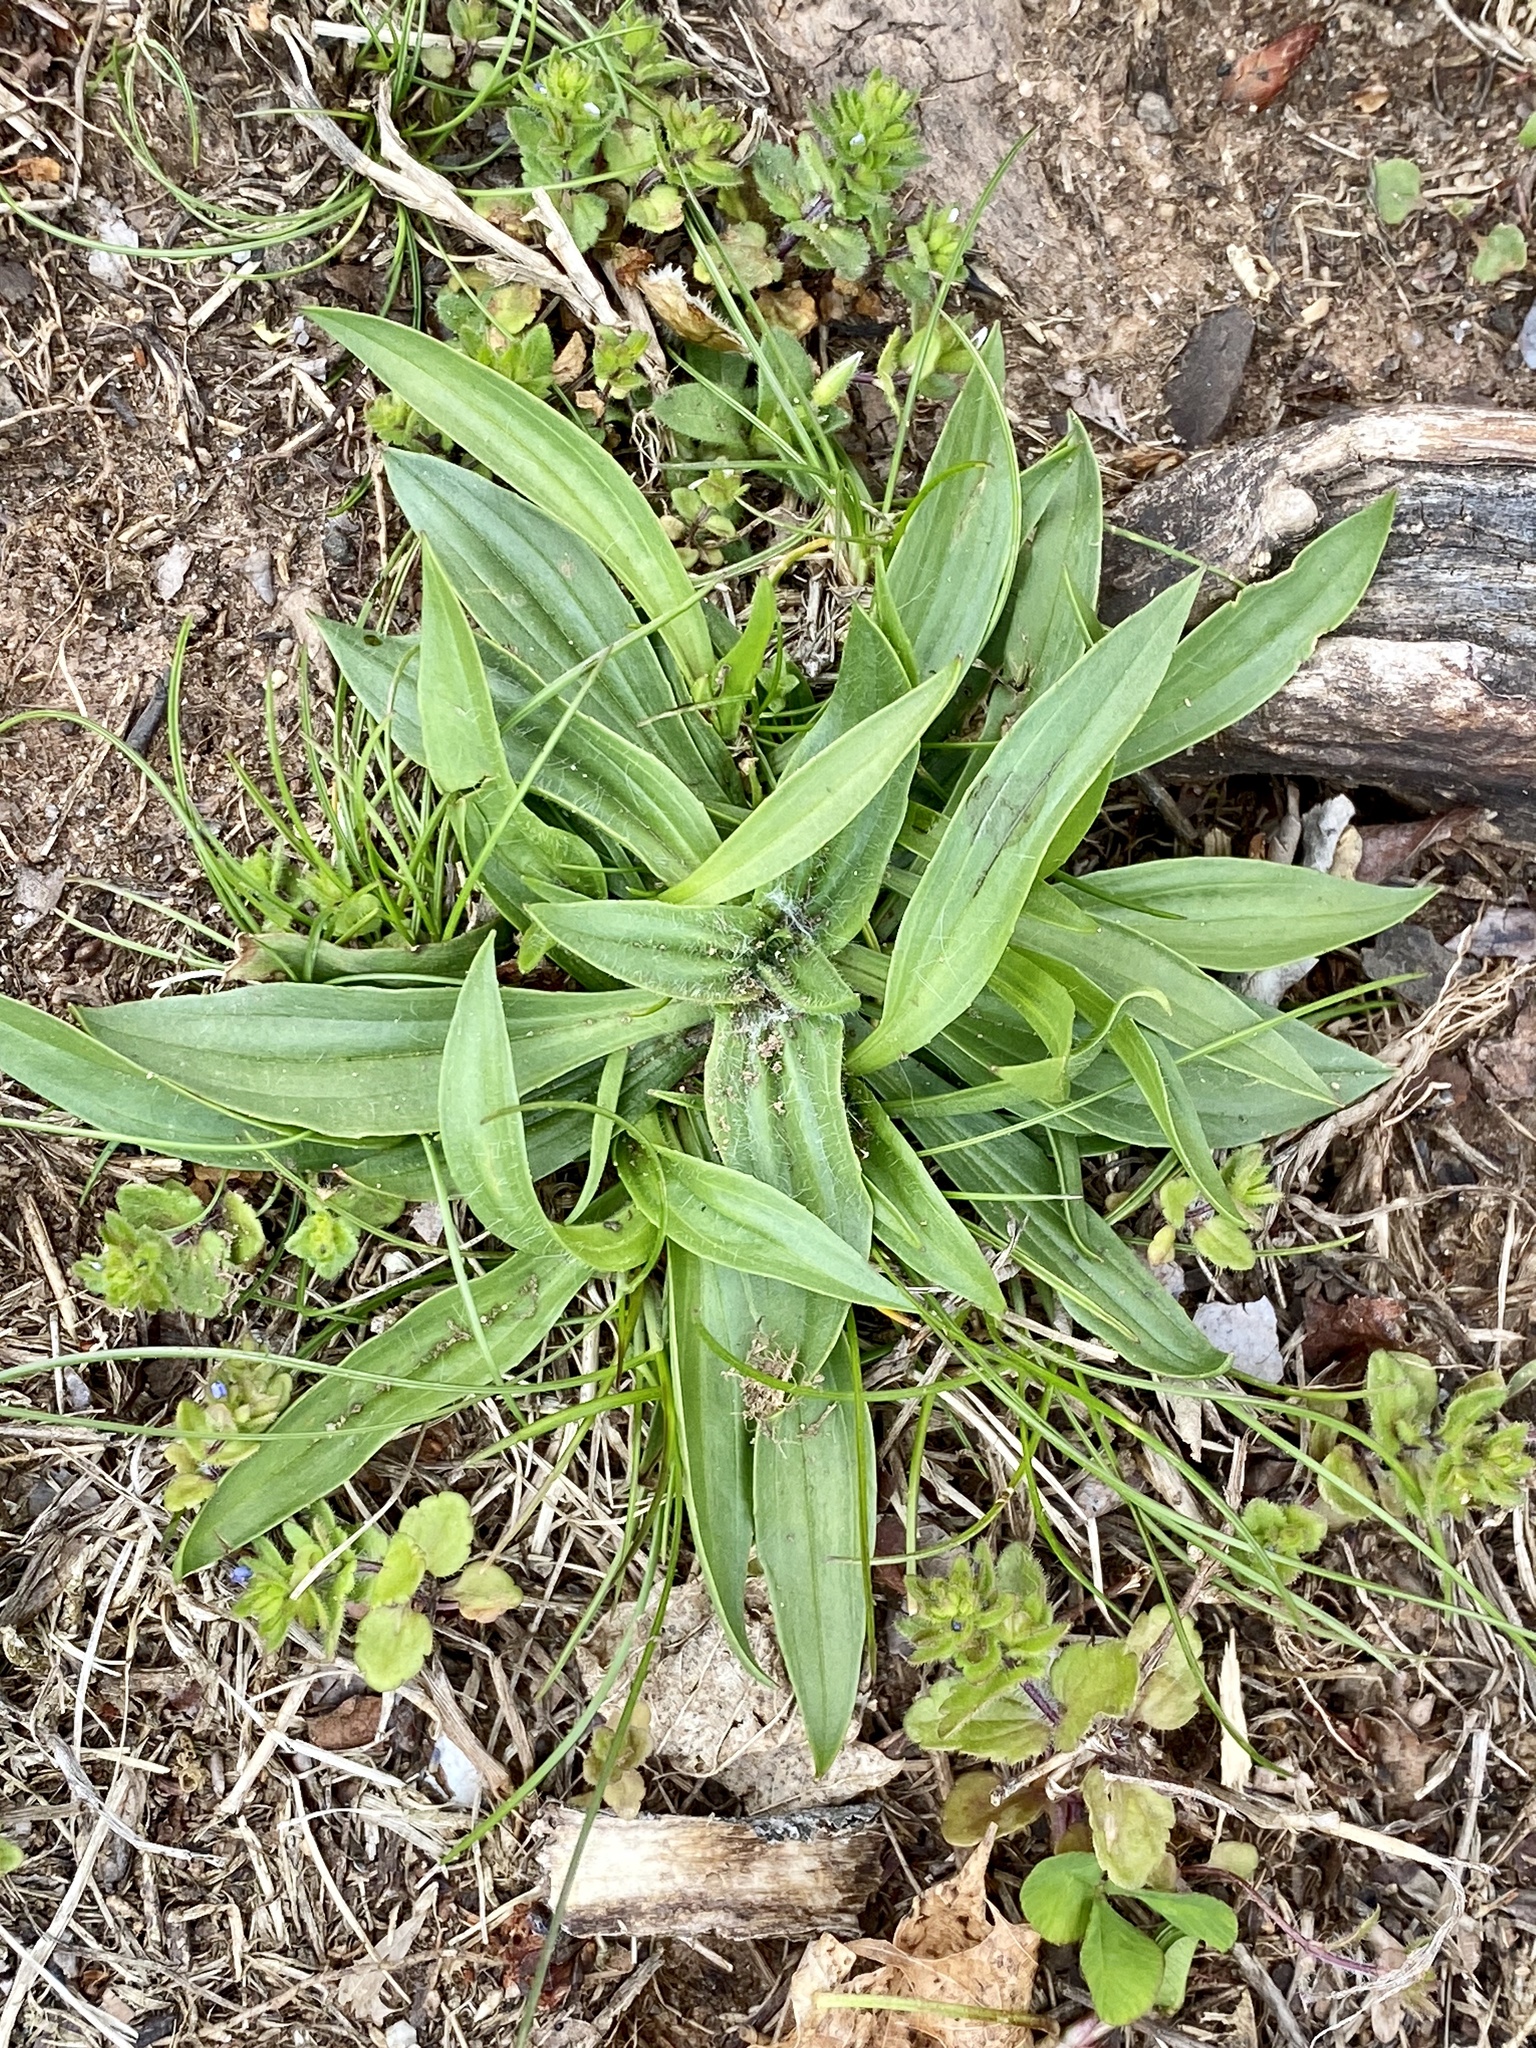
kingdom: Plantae
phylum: Tracheophyta
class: Magnoliopsida
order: Lamiales
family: Plantaginaceae
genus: Plantago
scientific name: Plantago lanceolata
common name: Ribwort plantain
